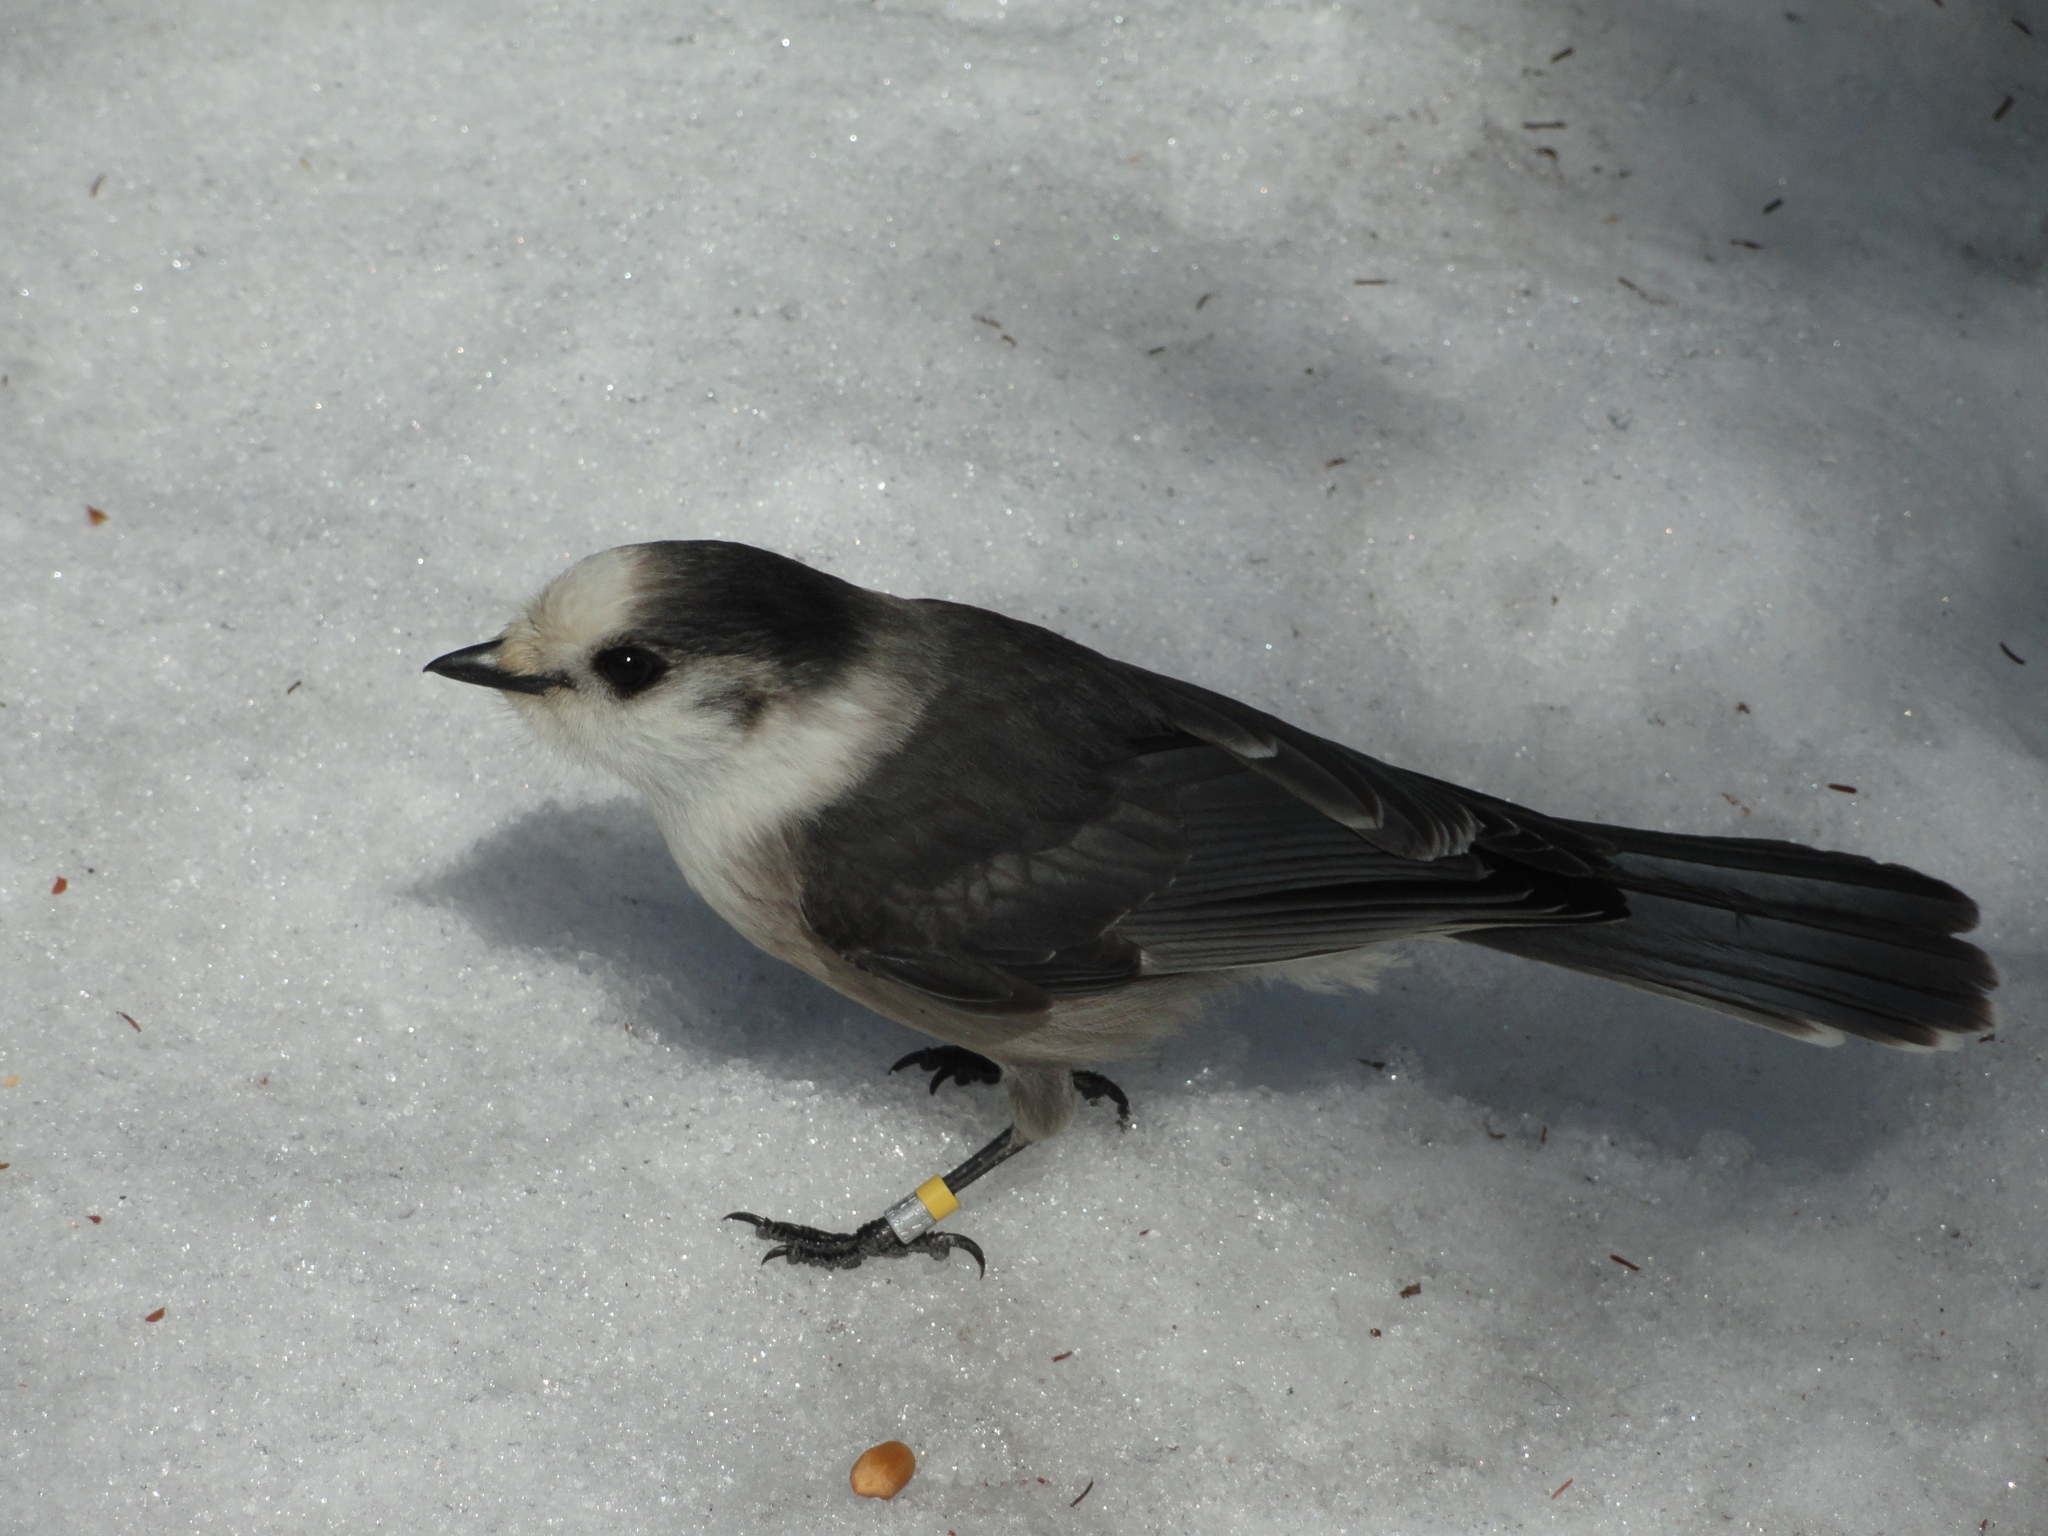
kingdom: Animalia
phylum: Chordata
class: Aves
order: Passeriformes
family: Corvidae
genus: Perisoreus
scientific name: Perisoreus canadensis
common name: Gray jay
